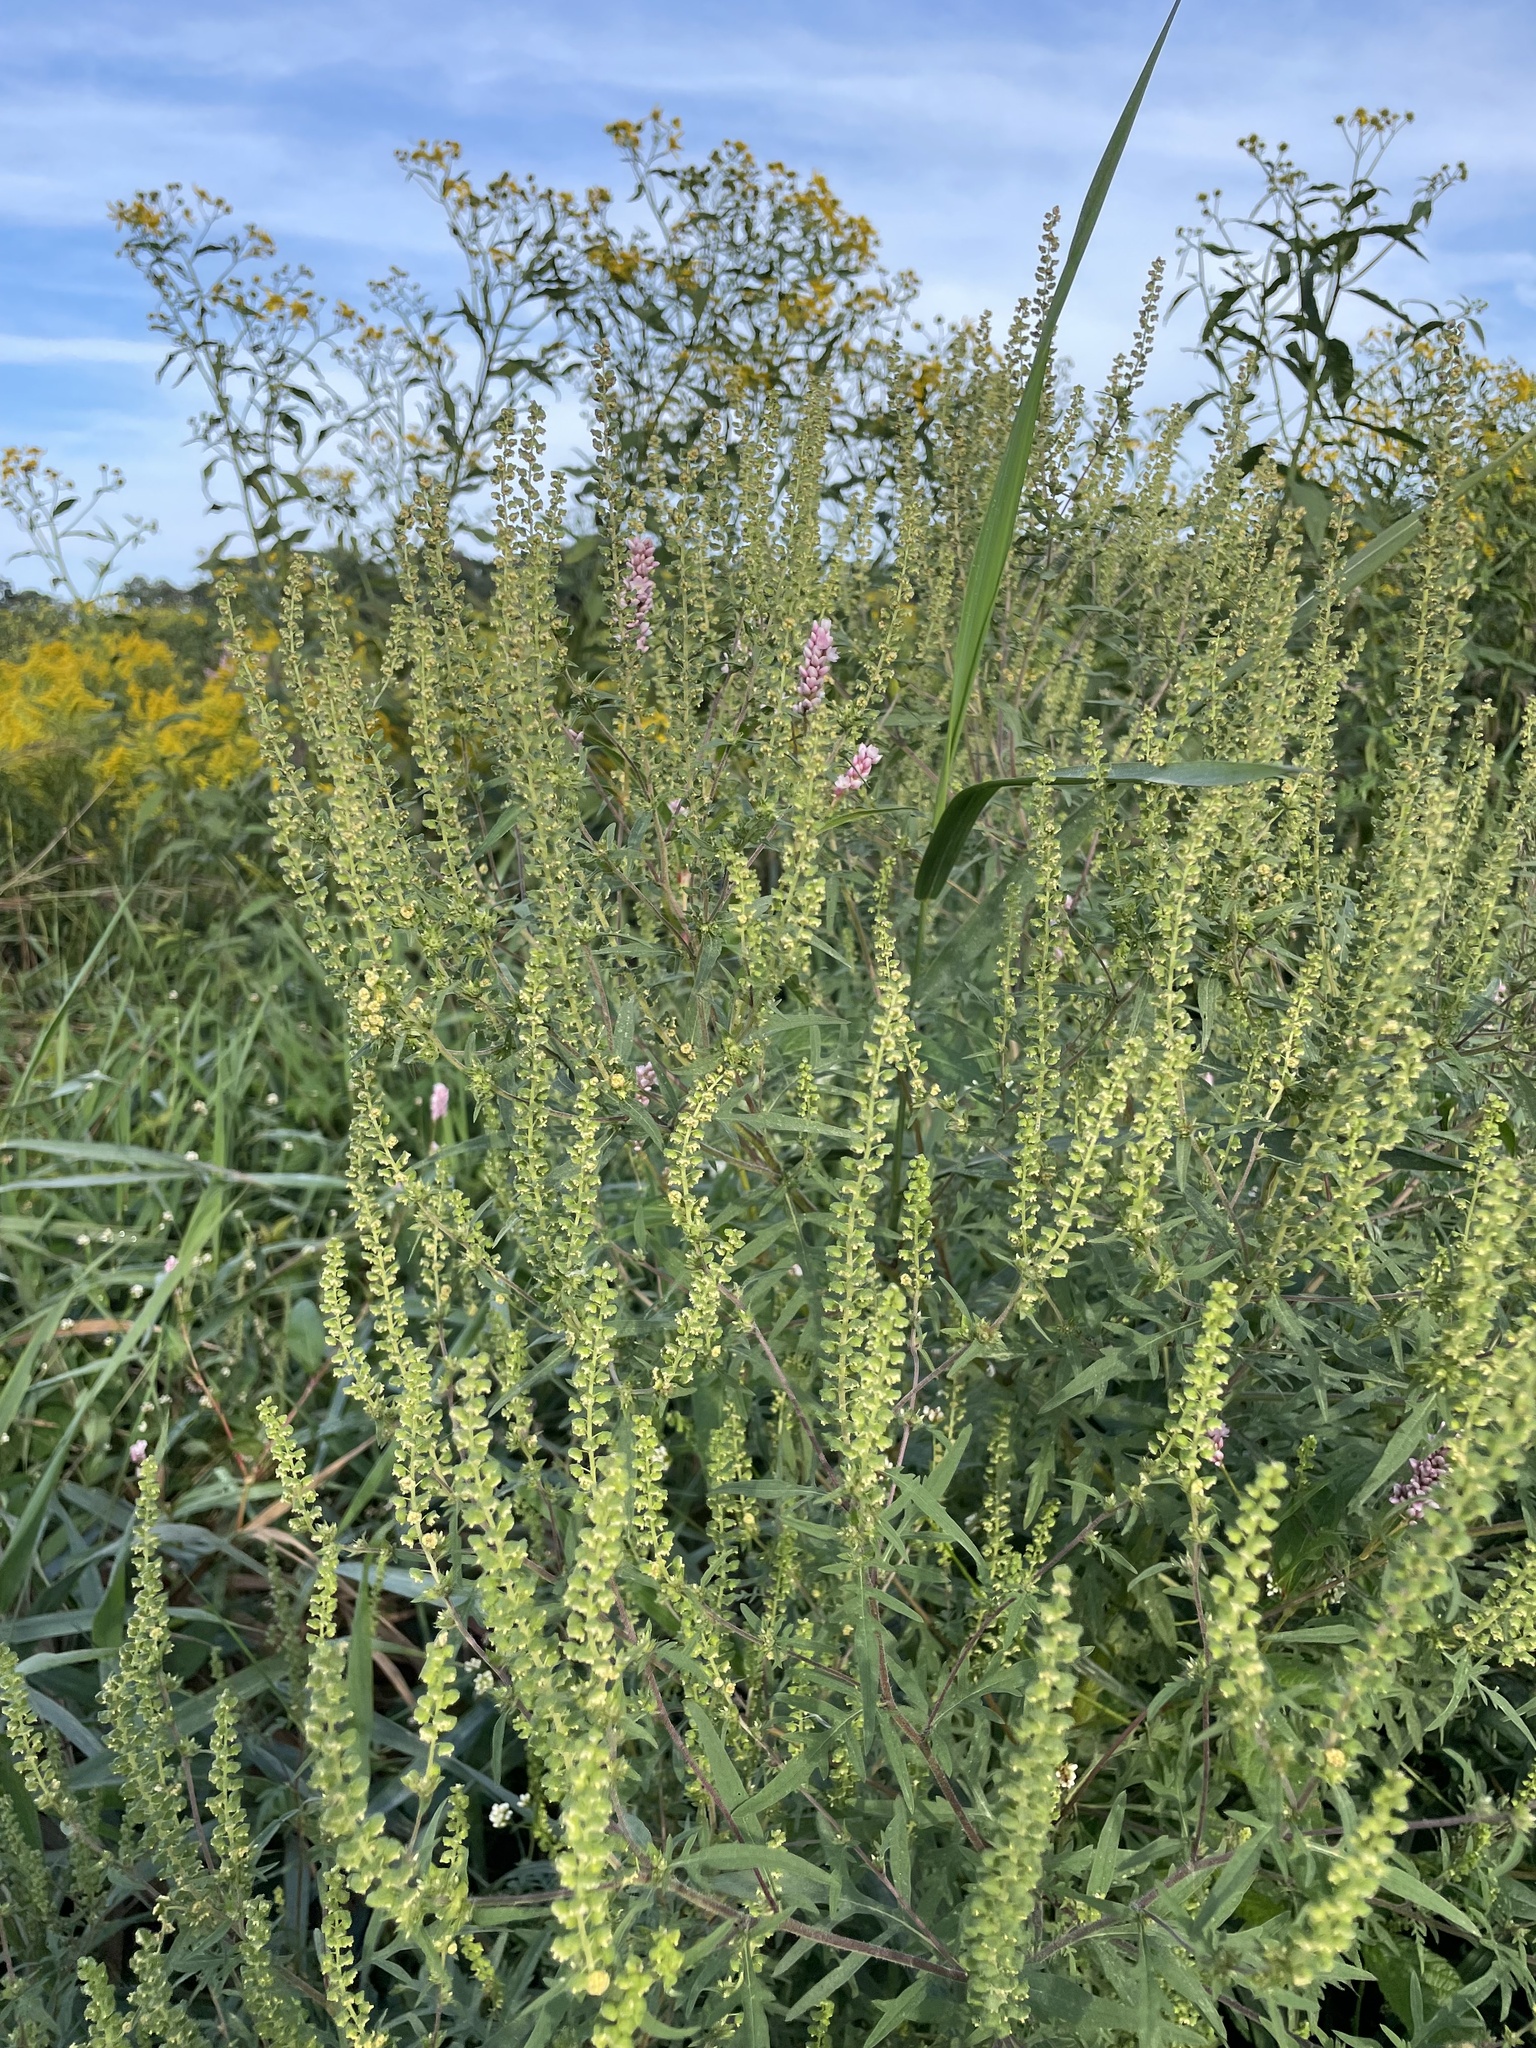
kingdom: Plantae
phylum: Tracheophyta
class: Magnoliopsida
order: Asterales
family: Asteraceae
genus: Ambrosia
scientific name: Ambrosia artemisiifolia
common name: Annual ragweed
